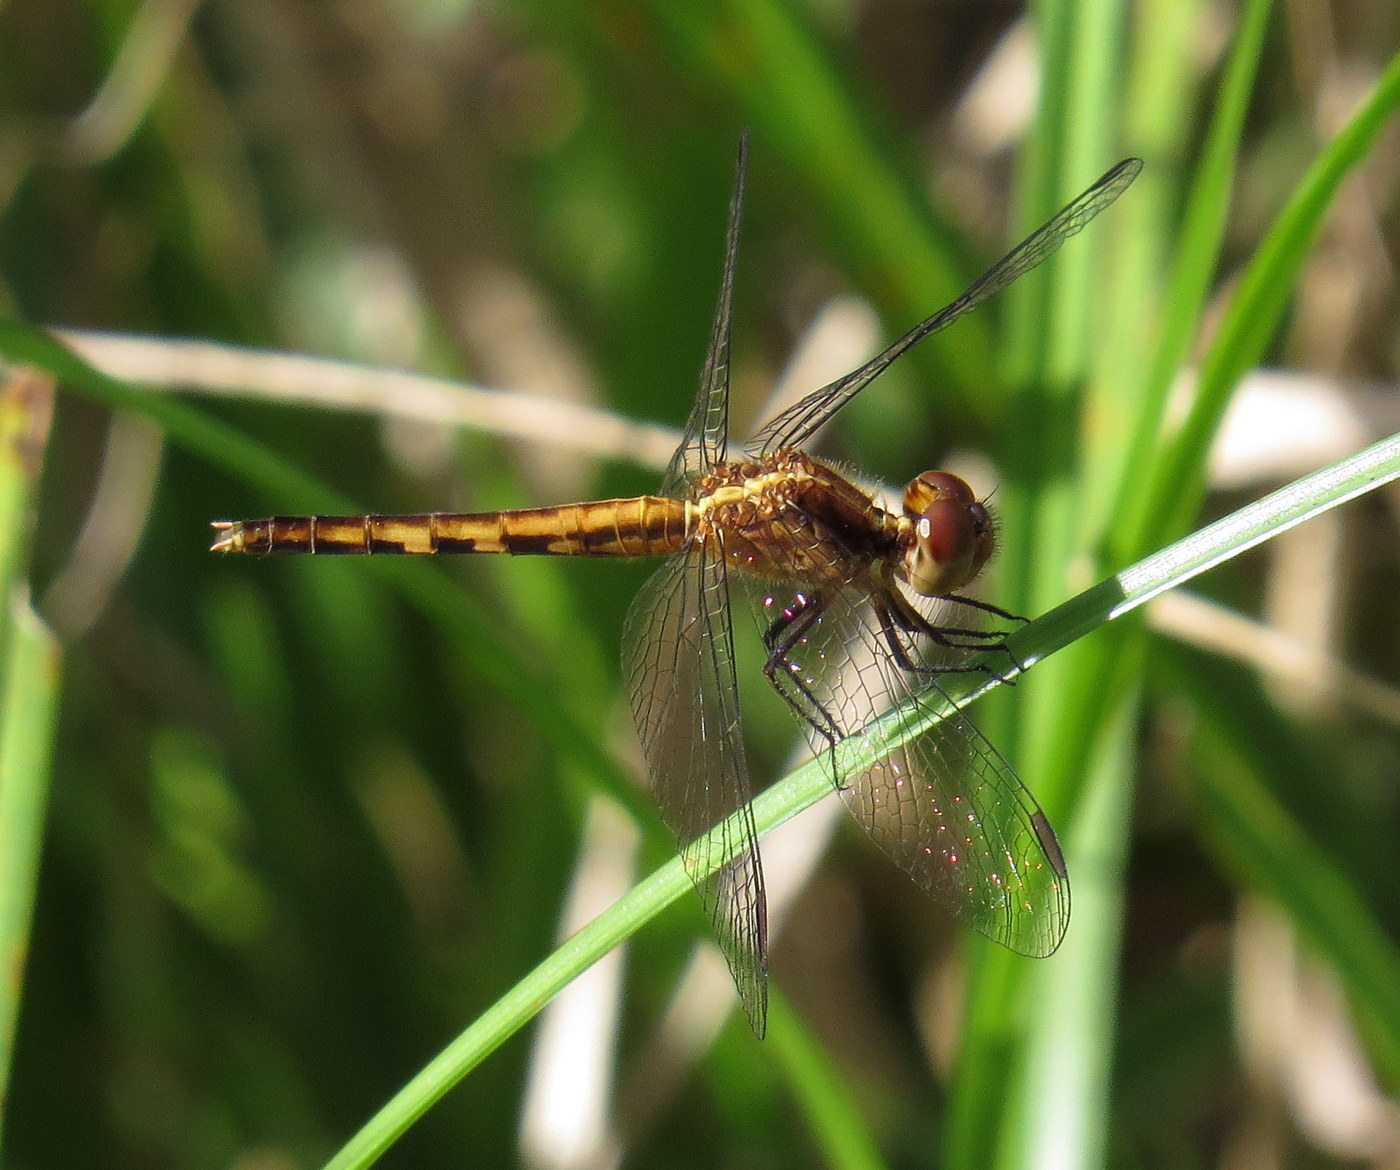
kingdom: Animalia
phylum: Arthropoda
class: Insecta
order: Odonata
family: Libellulidae
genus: Erythrodiplax
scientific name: Erythrodiplax minuscula
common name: Little blue dragonlet
